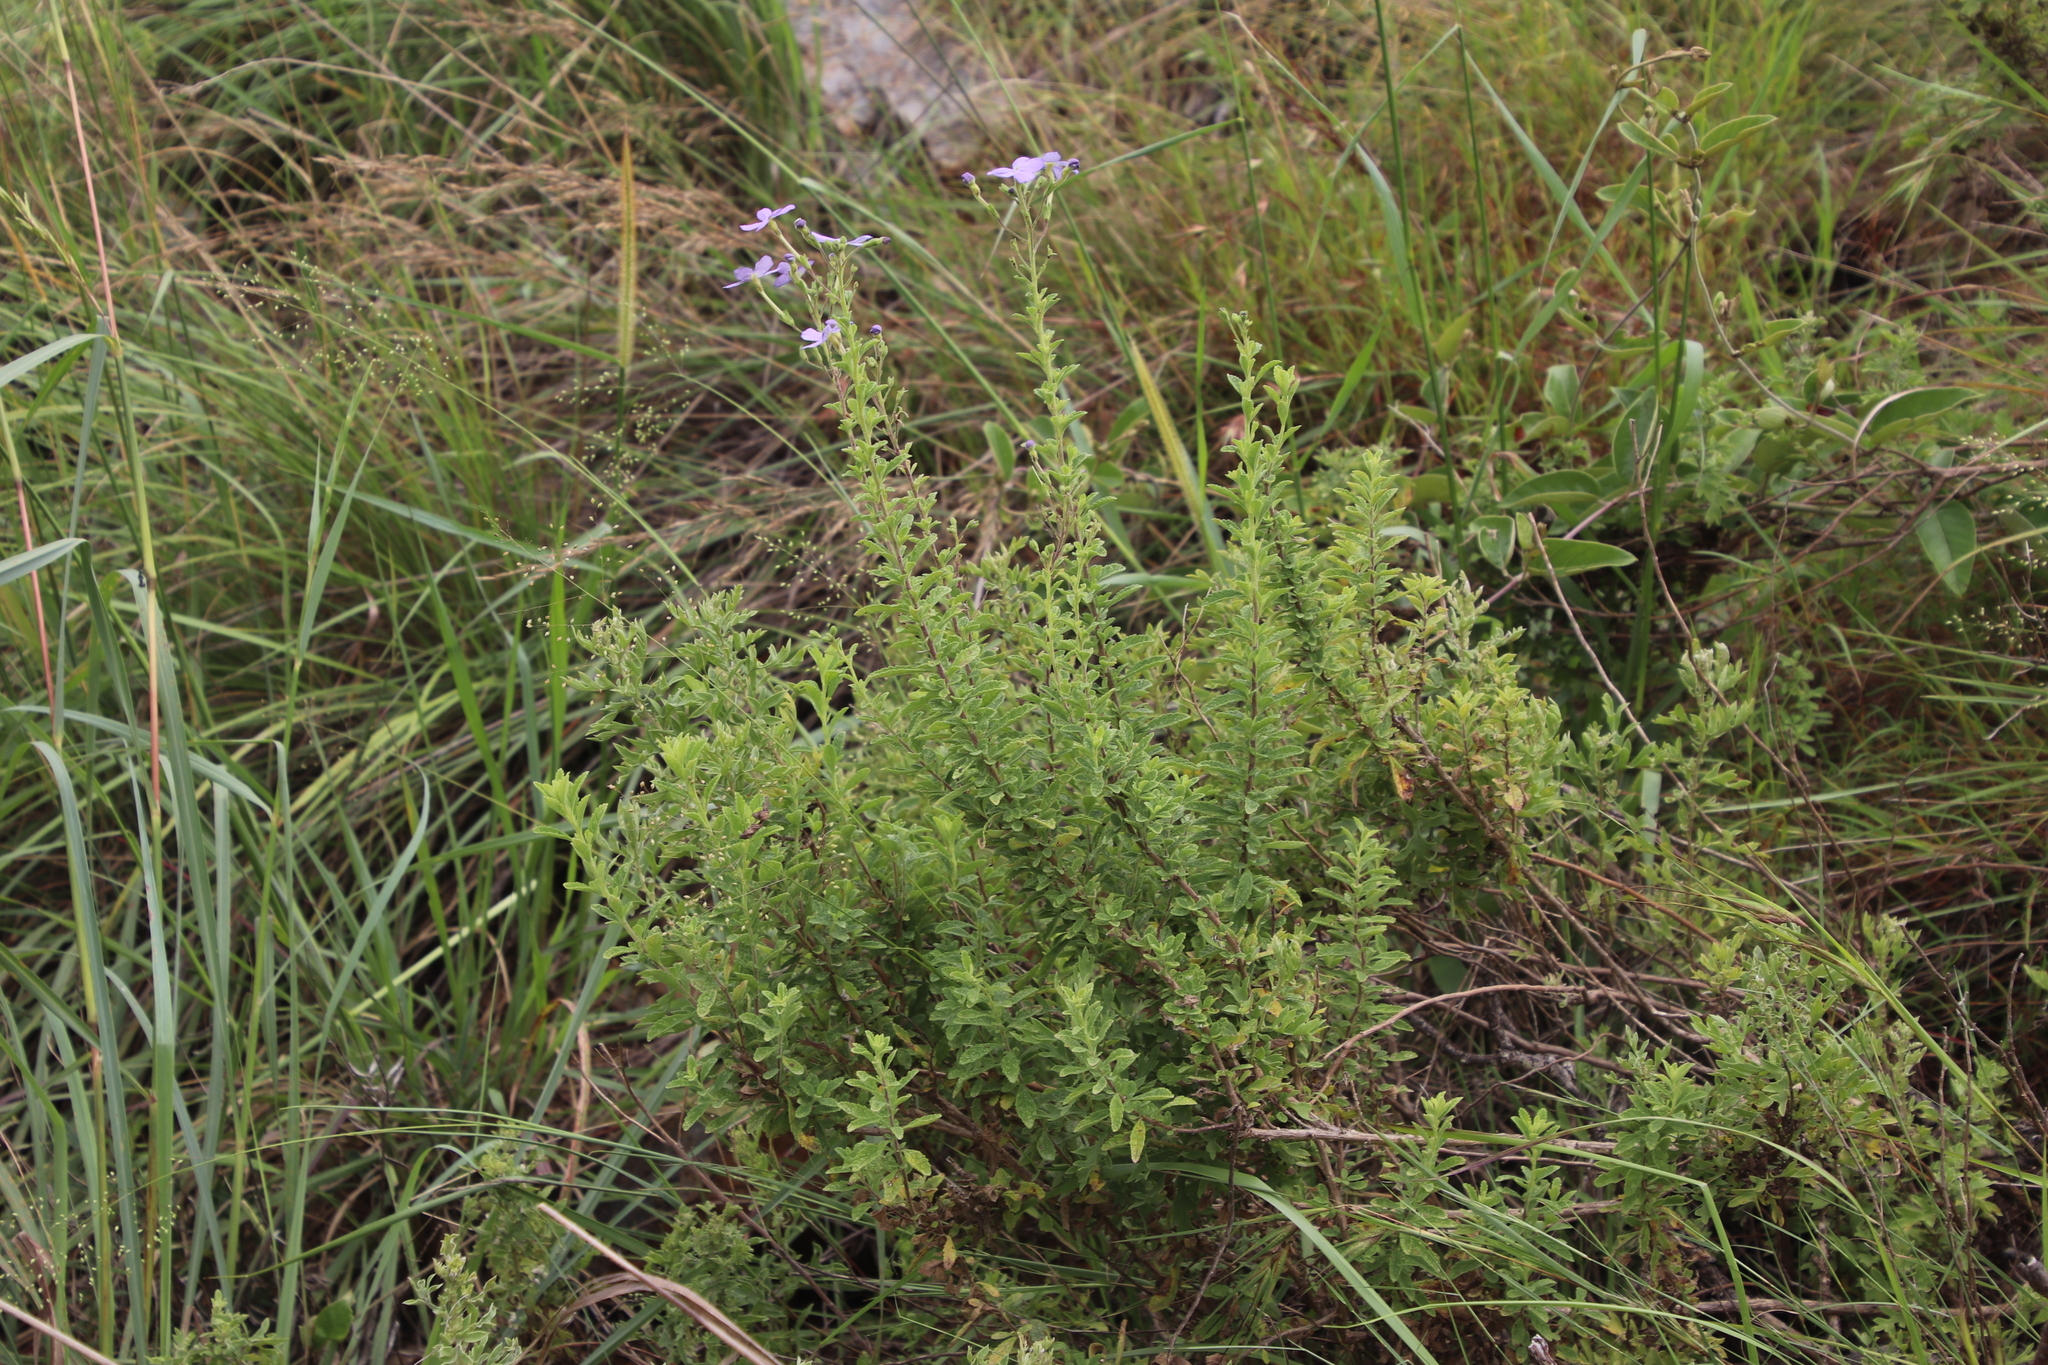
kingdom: Plantae
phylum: Tracheophyta
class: Magnoliopsida
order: Lamiales
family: Scrophulariaceae
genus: Jamesbrittenia
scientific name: Jamesbrittenia grandiflora
